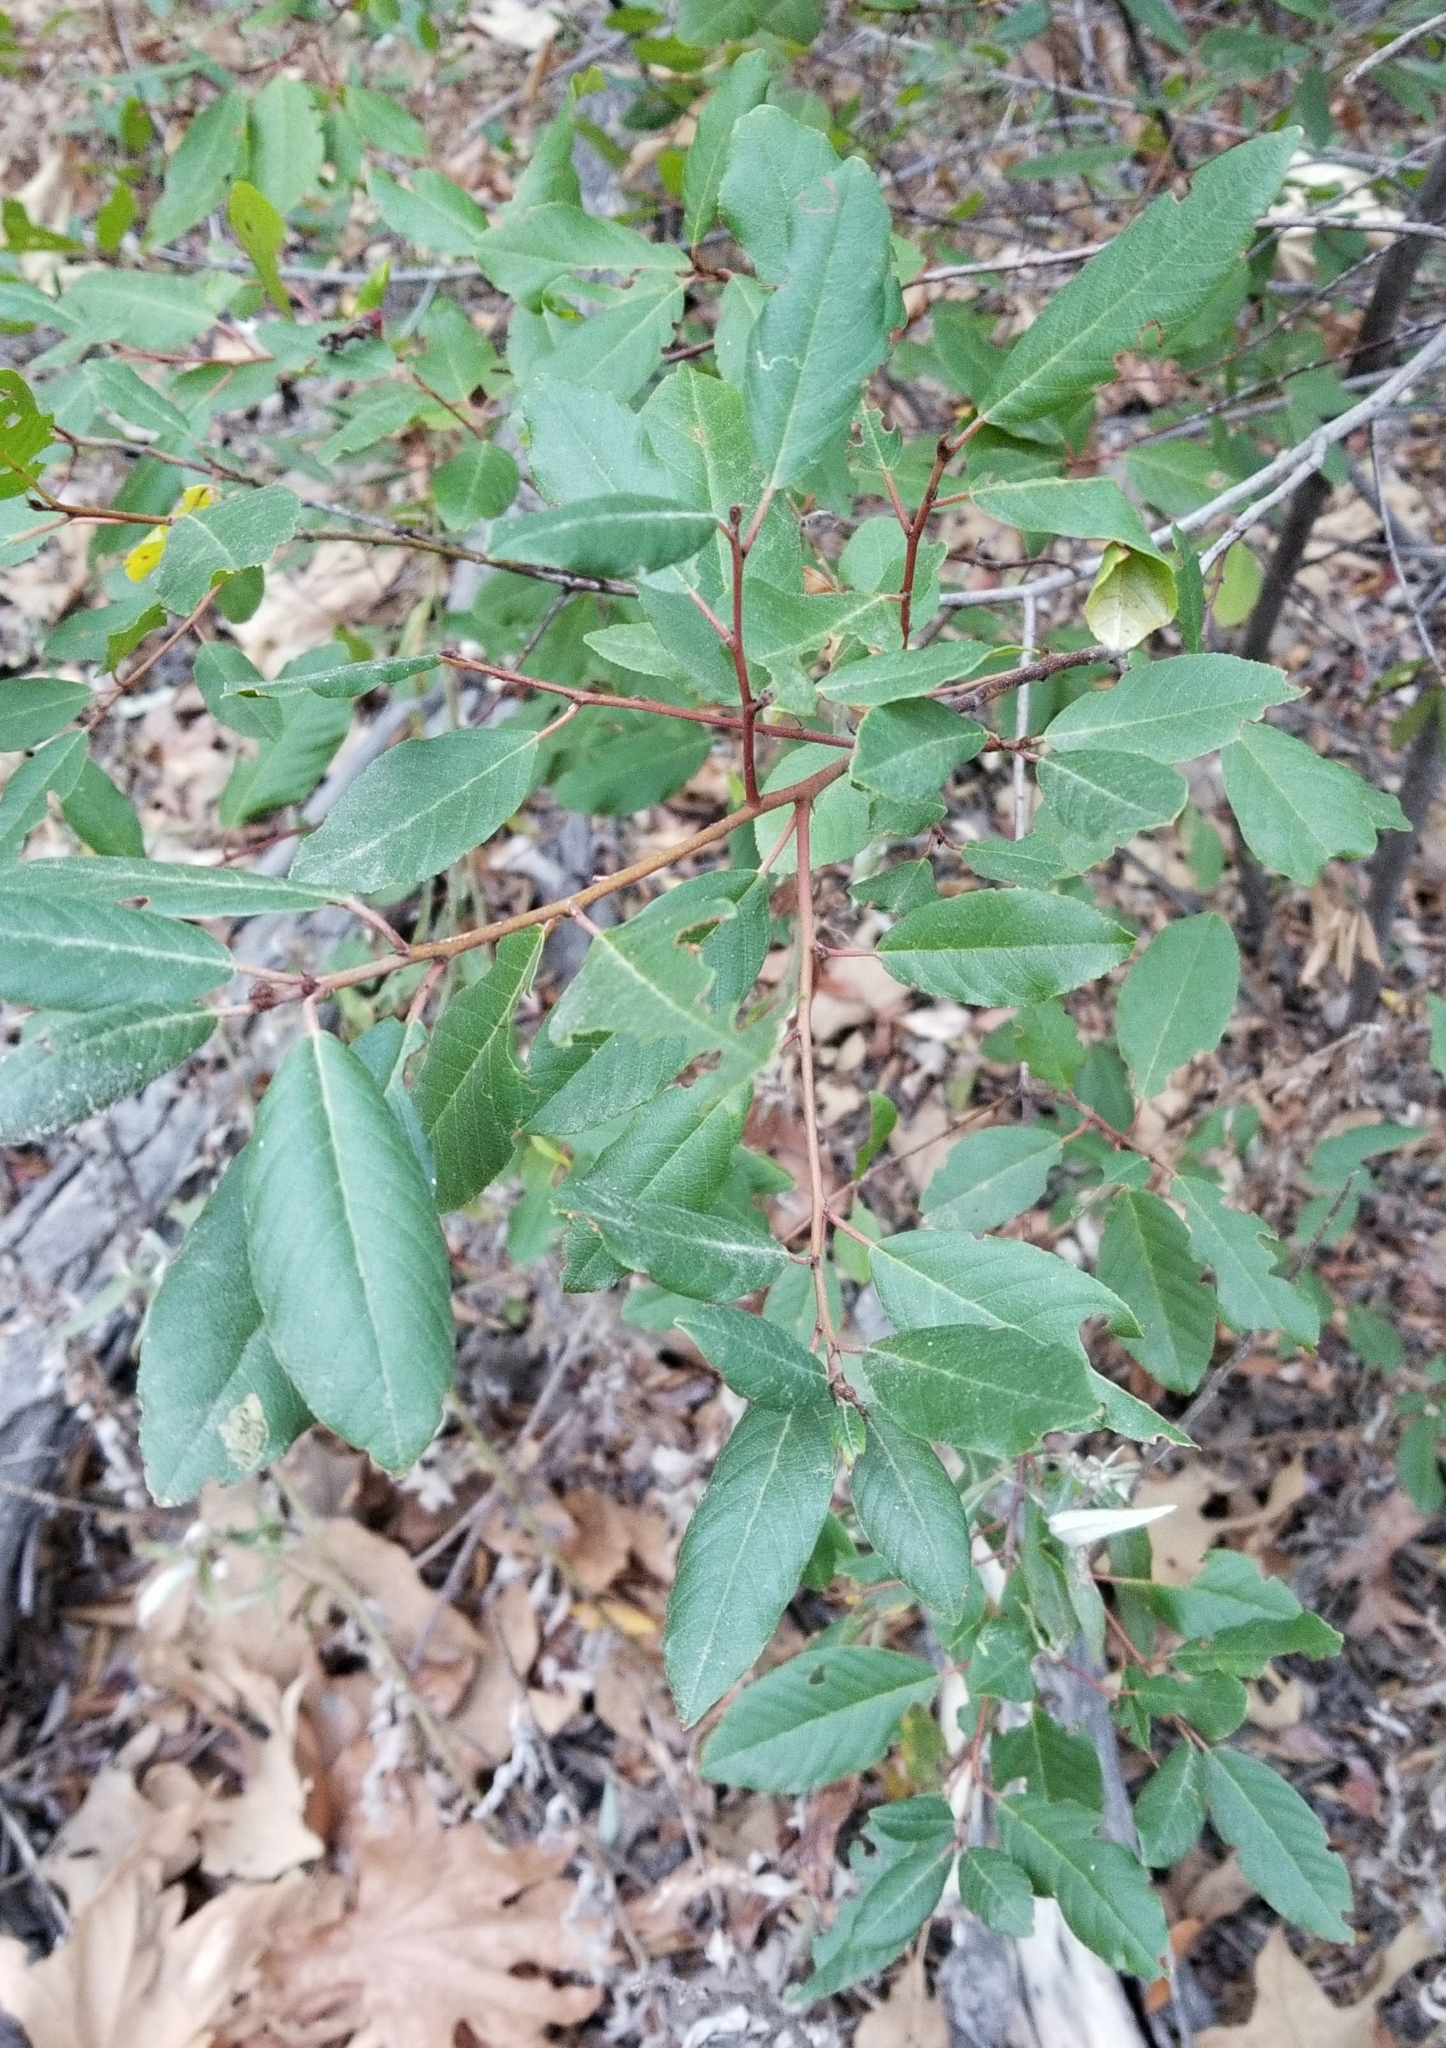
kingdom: Plantae
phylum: Tracheophyta
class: Magnoliopsida
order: Rosales
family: Rhamnaceae
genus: Frangula
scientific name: Frangula californica
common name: California buckthorn
